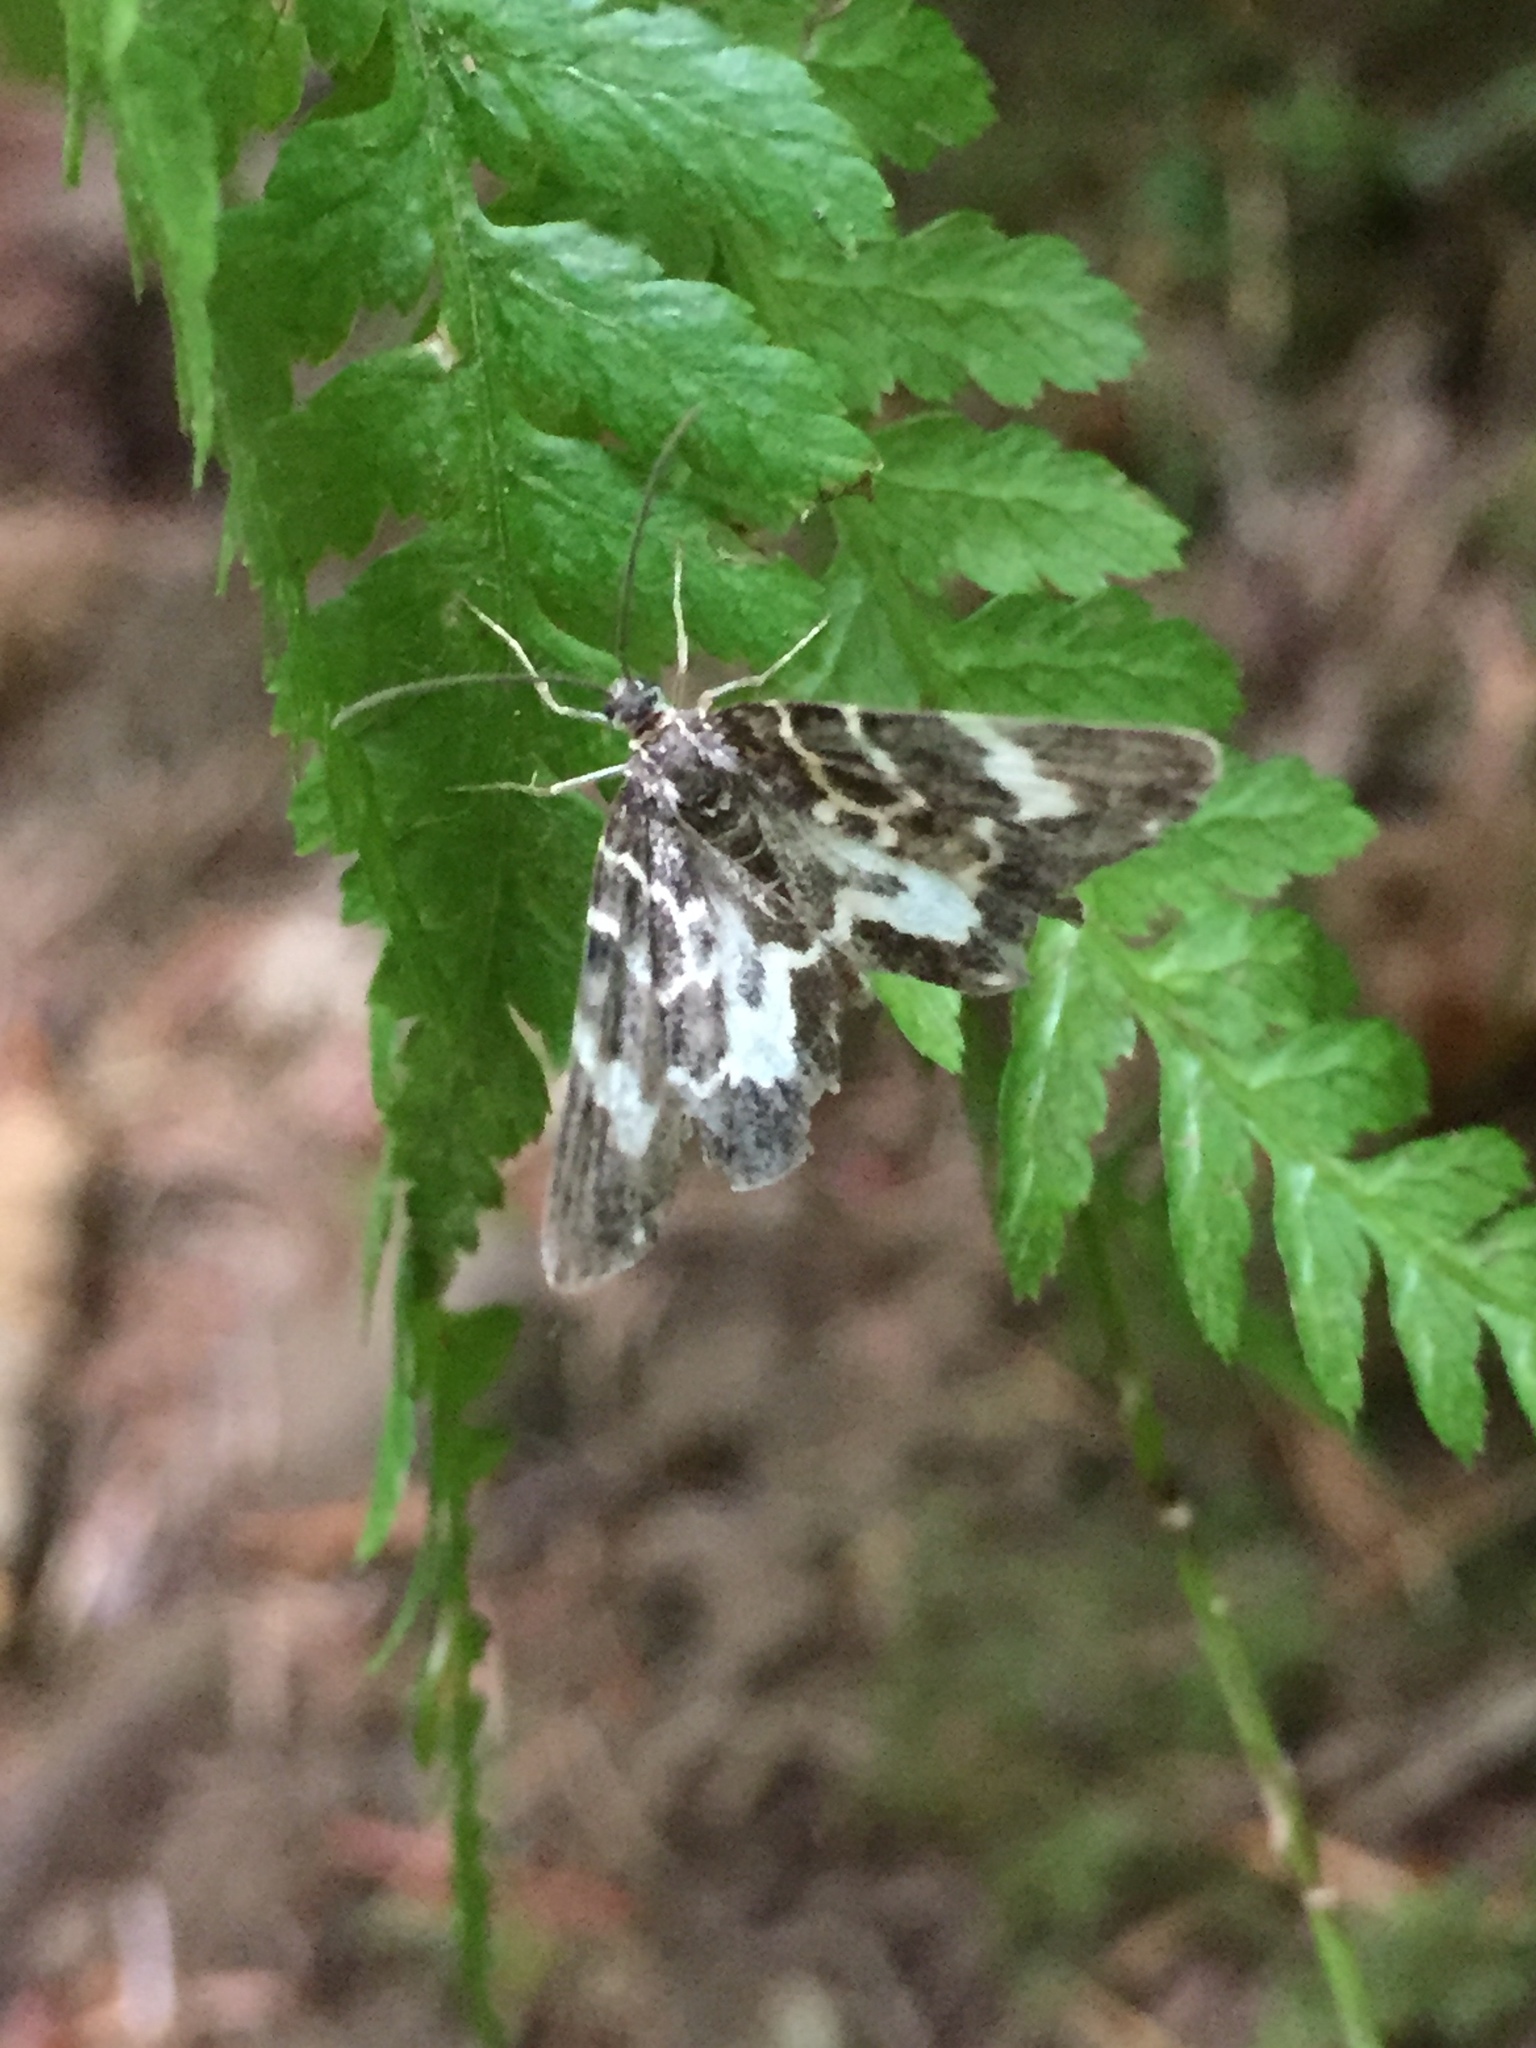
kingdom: Animalia
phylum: Arthropoda
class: Insecta
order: Lepidoptera
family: Geometridae
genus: Trichodezia
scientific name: Trichodezia californiata
